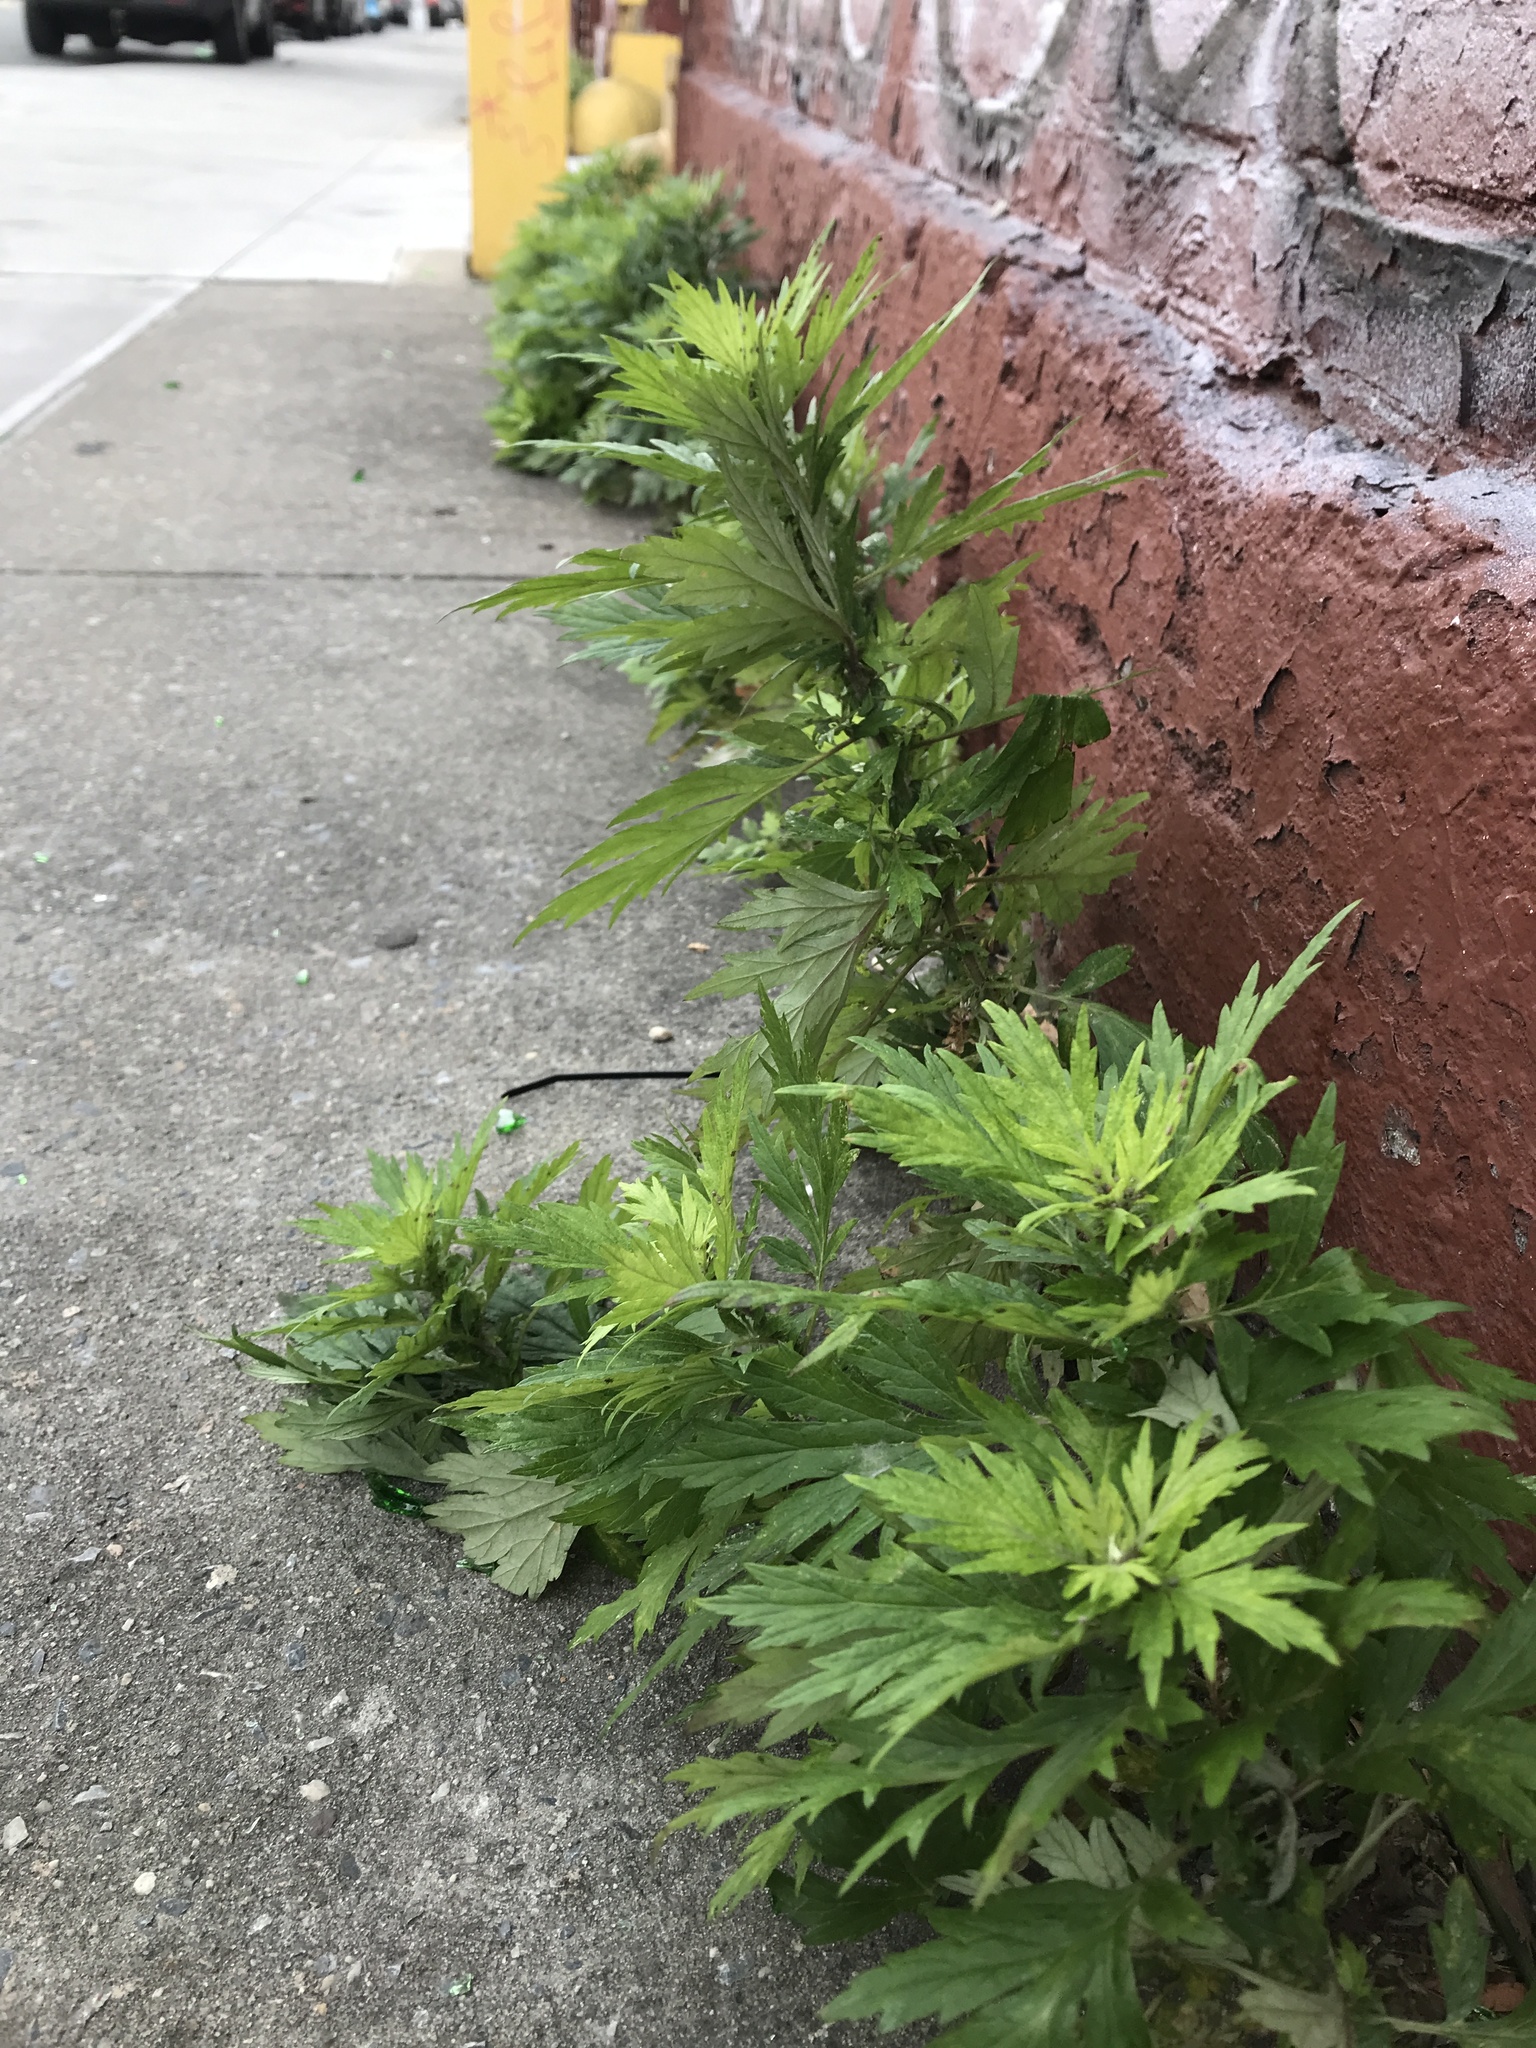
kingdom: Plantae
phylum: Tracheophyta
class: Magnoliopsida
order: Asterales
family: Asteraceae
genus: Artemisia
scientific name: Artemisia vulgaris
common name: Mugwort
